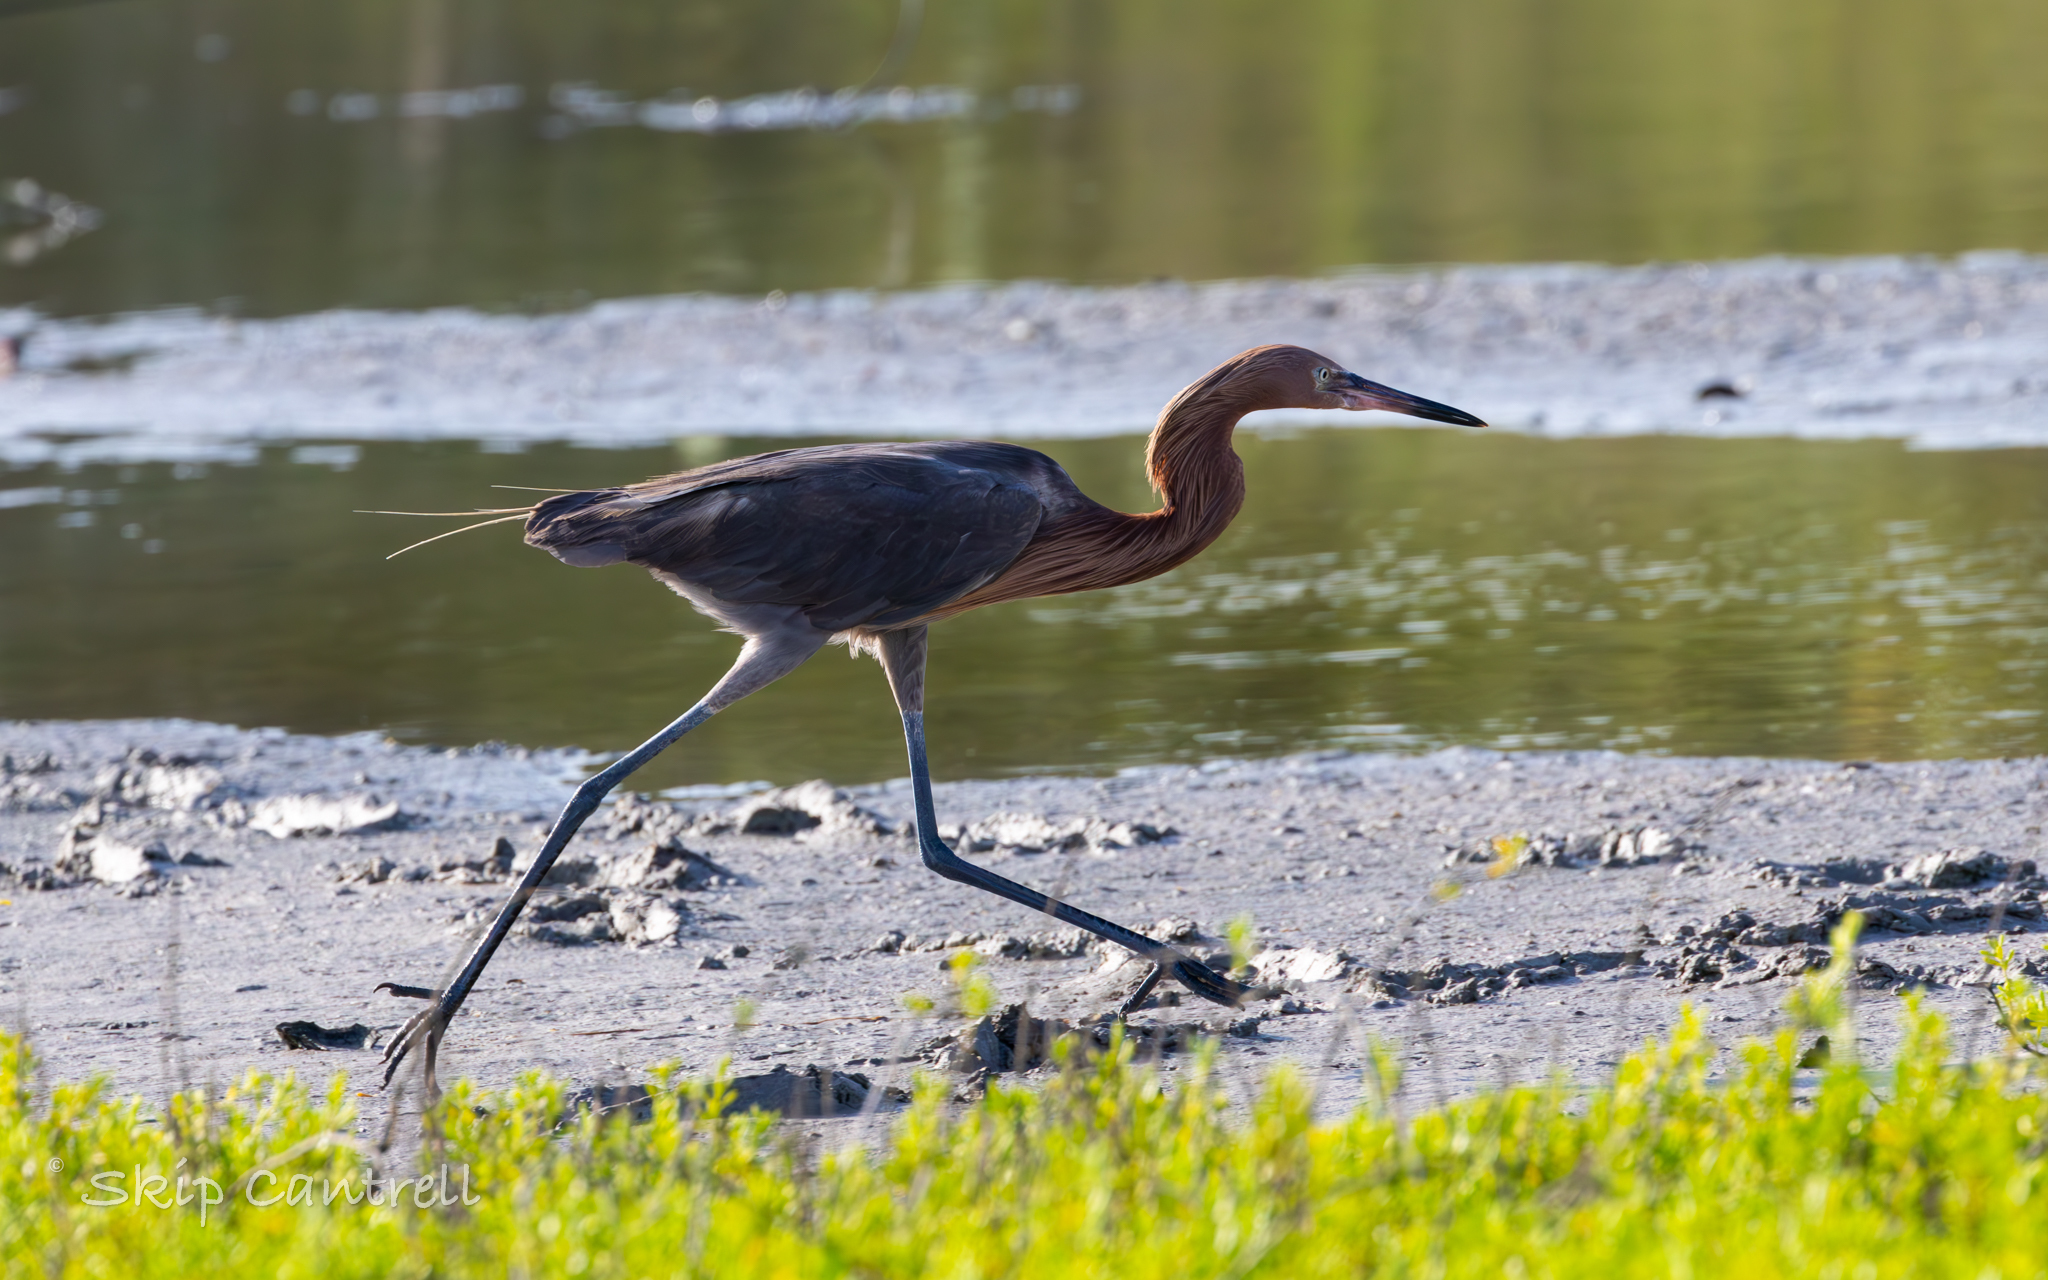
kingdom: Animalia
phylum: Chordata
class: Aves
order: Pelecaniformes
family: Ardeidae
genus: Egretta
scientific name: Egretta rufescens
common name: Reddish egret
